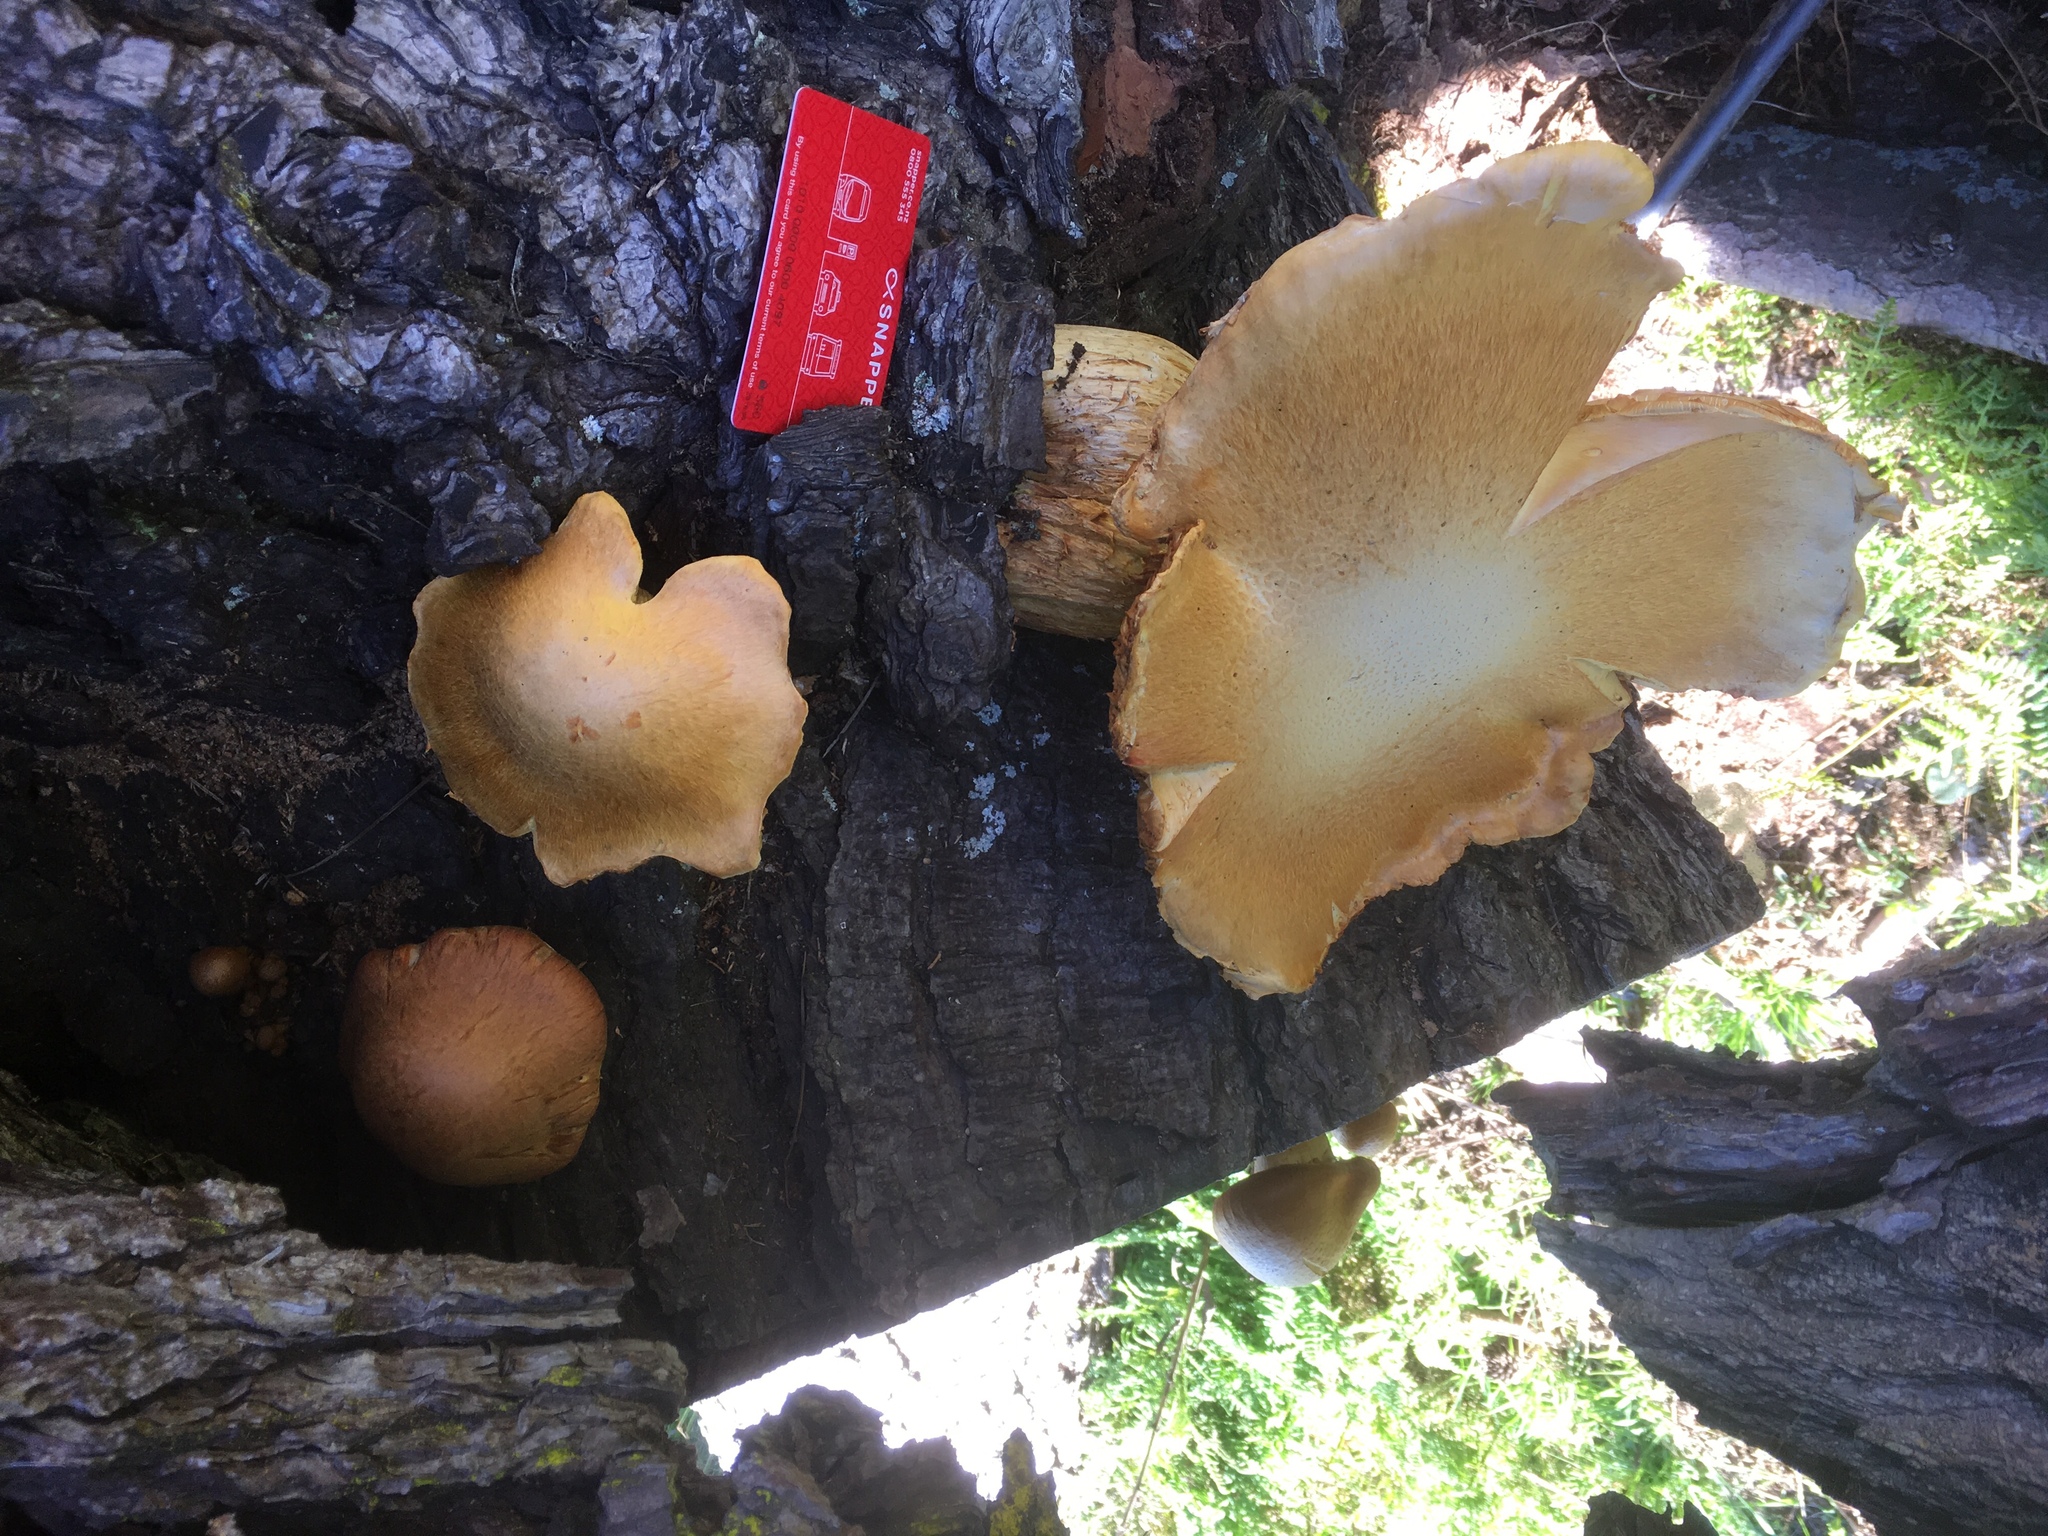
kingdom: Fungi
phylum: Basidiomycota
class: Agaricomycetes
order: Agaricales
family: Hymenogastraceae
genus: Gymnopilus
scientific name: Gymnopilus junonius
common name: Spectacular rustgill
